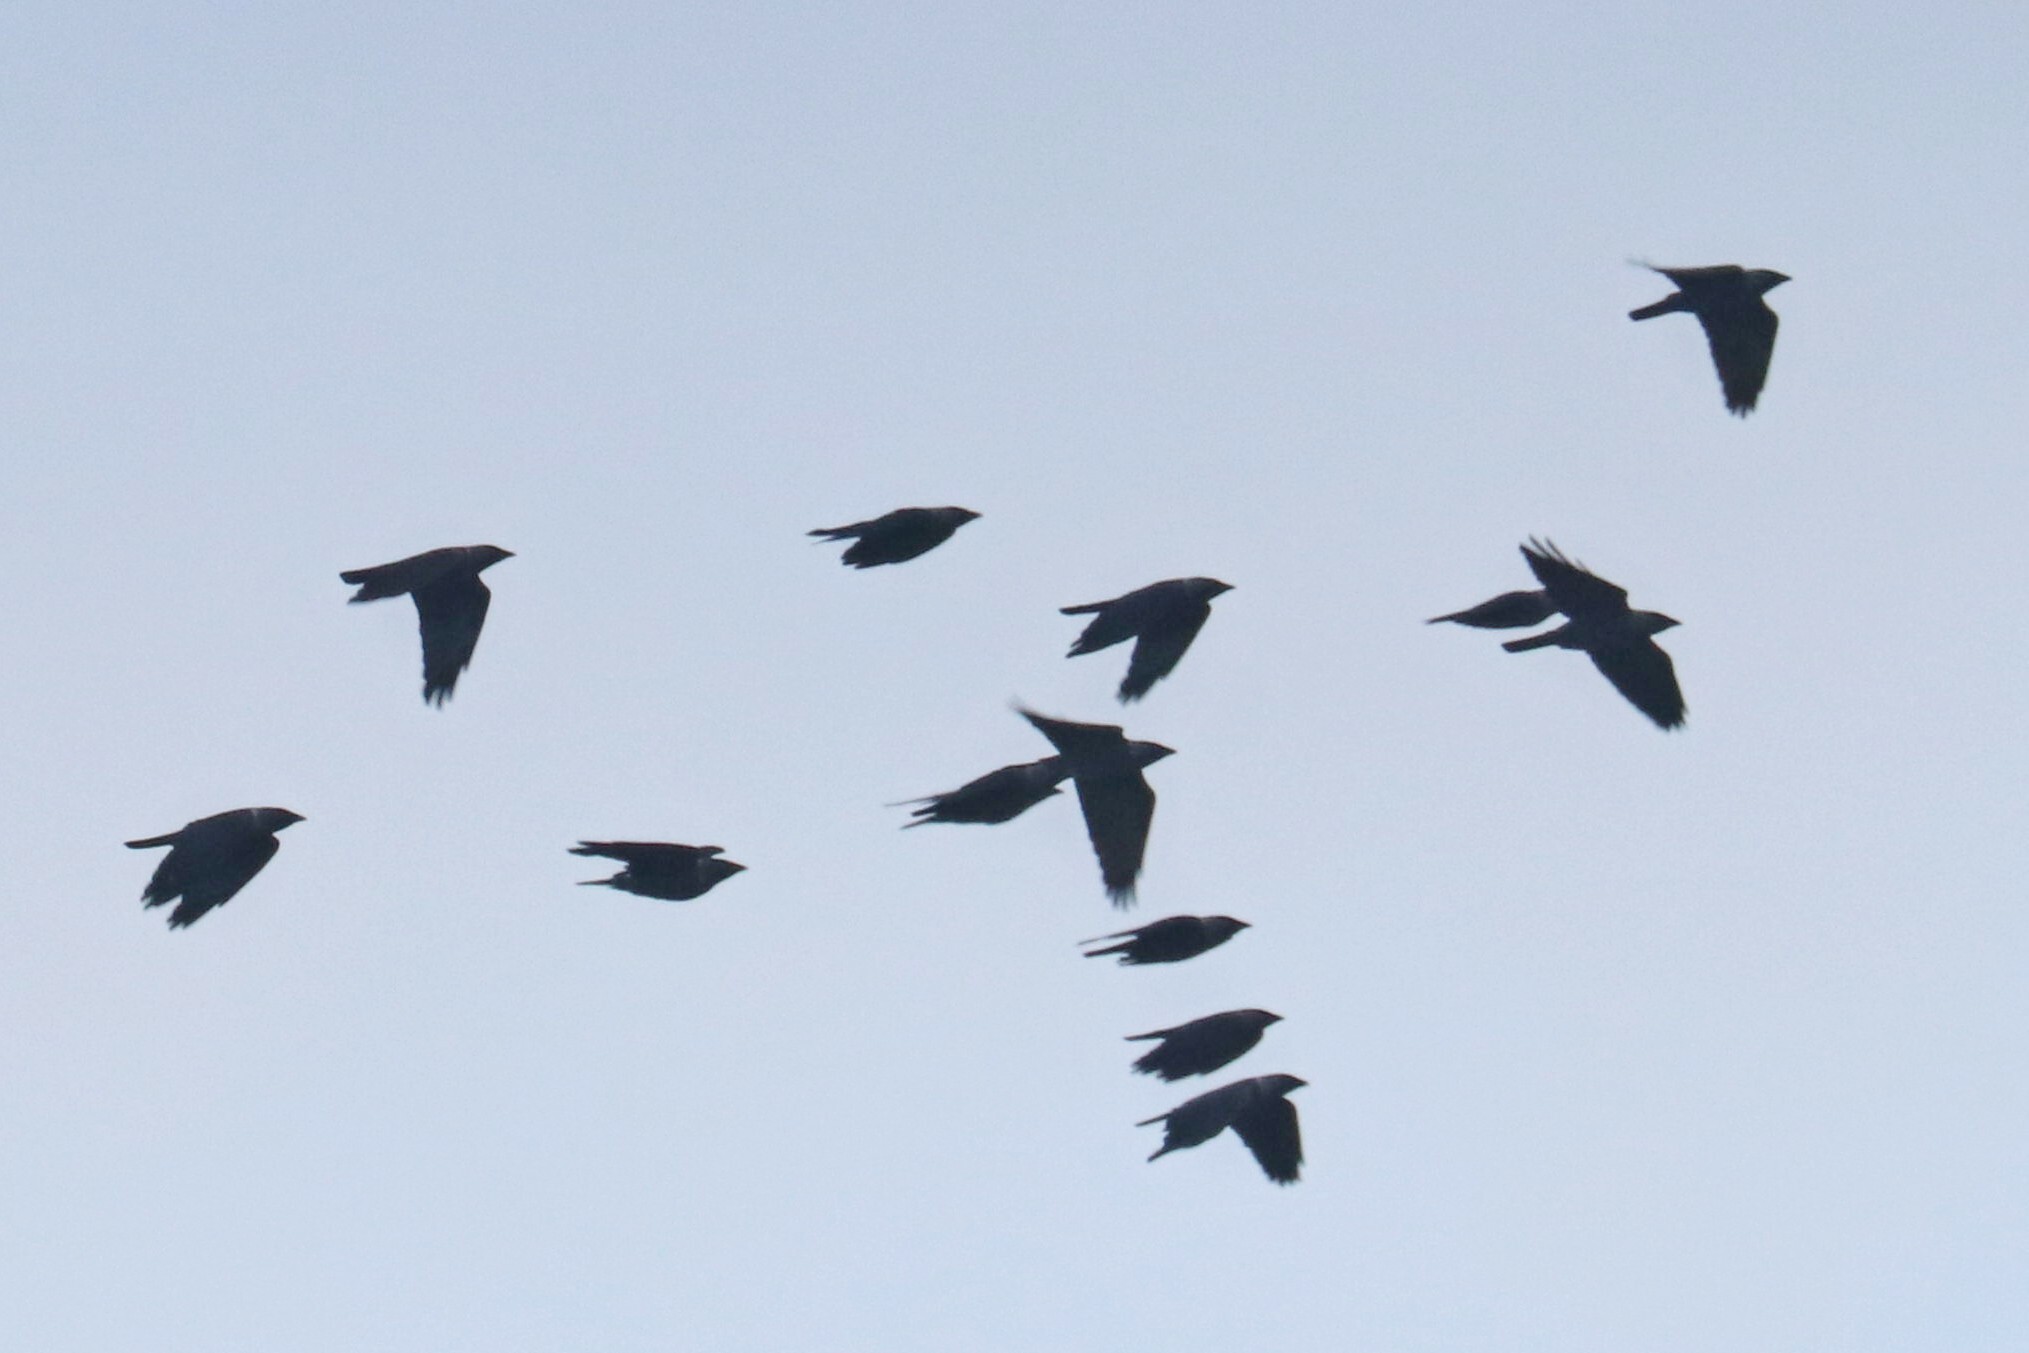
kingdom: Animalia
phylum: Chordata
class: Aves
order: Passeriformes
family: Corvidae
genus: Coloeus
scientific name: Coloeus monedula
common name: Western jackdaw
